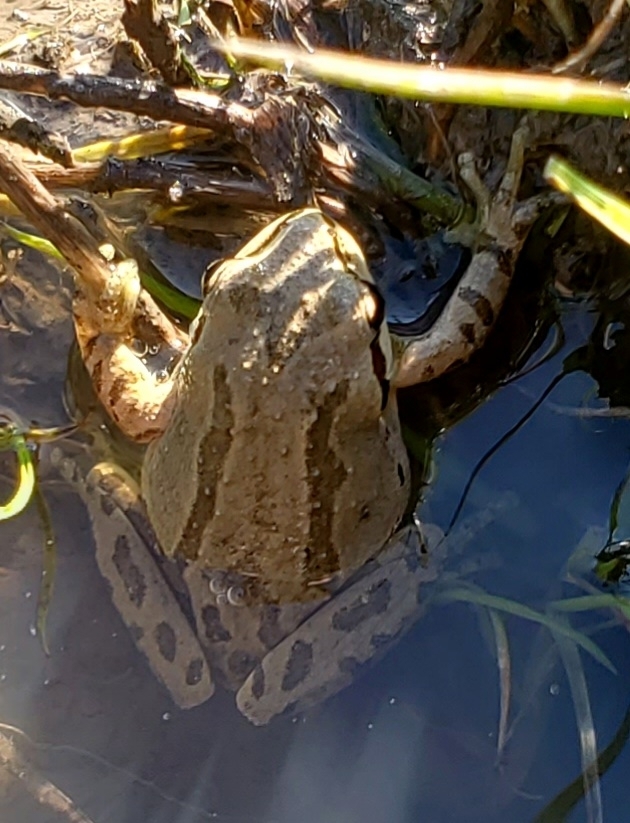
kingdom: Animalia
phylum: Chordata
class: Amphibia
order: Anura
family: Hylidae
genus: Pseudacris
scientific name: Pseudacris regilla
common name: Pacific chorus frog
